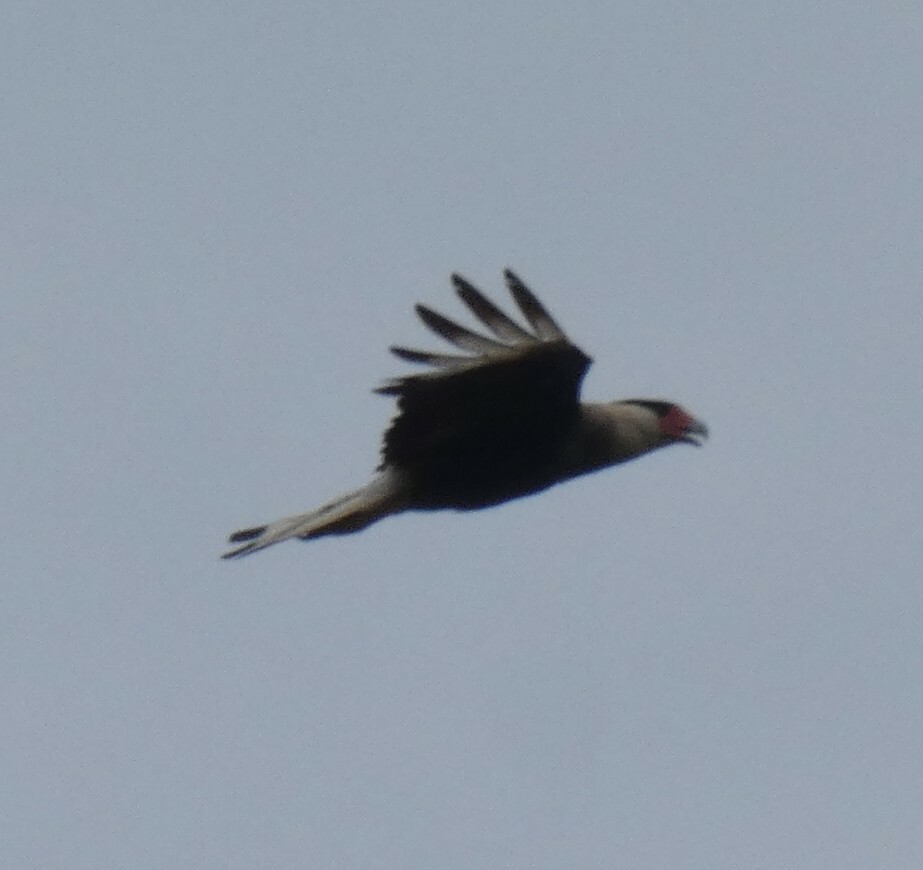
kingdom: Animalia
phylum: Chordata
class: Aves
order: Falconiformes
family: Falconidae
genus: Caracara
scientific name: Caracara plancus
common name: Southern caracara
